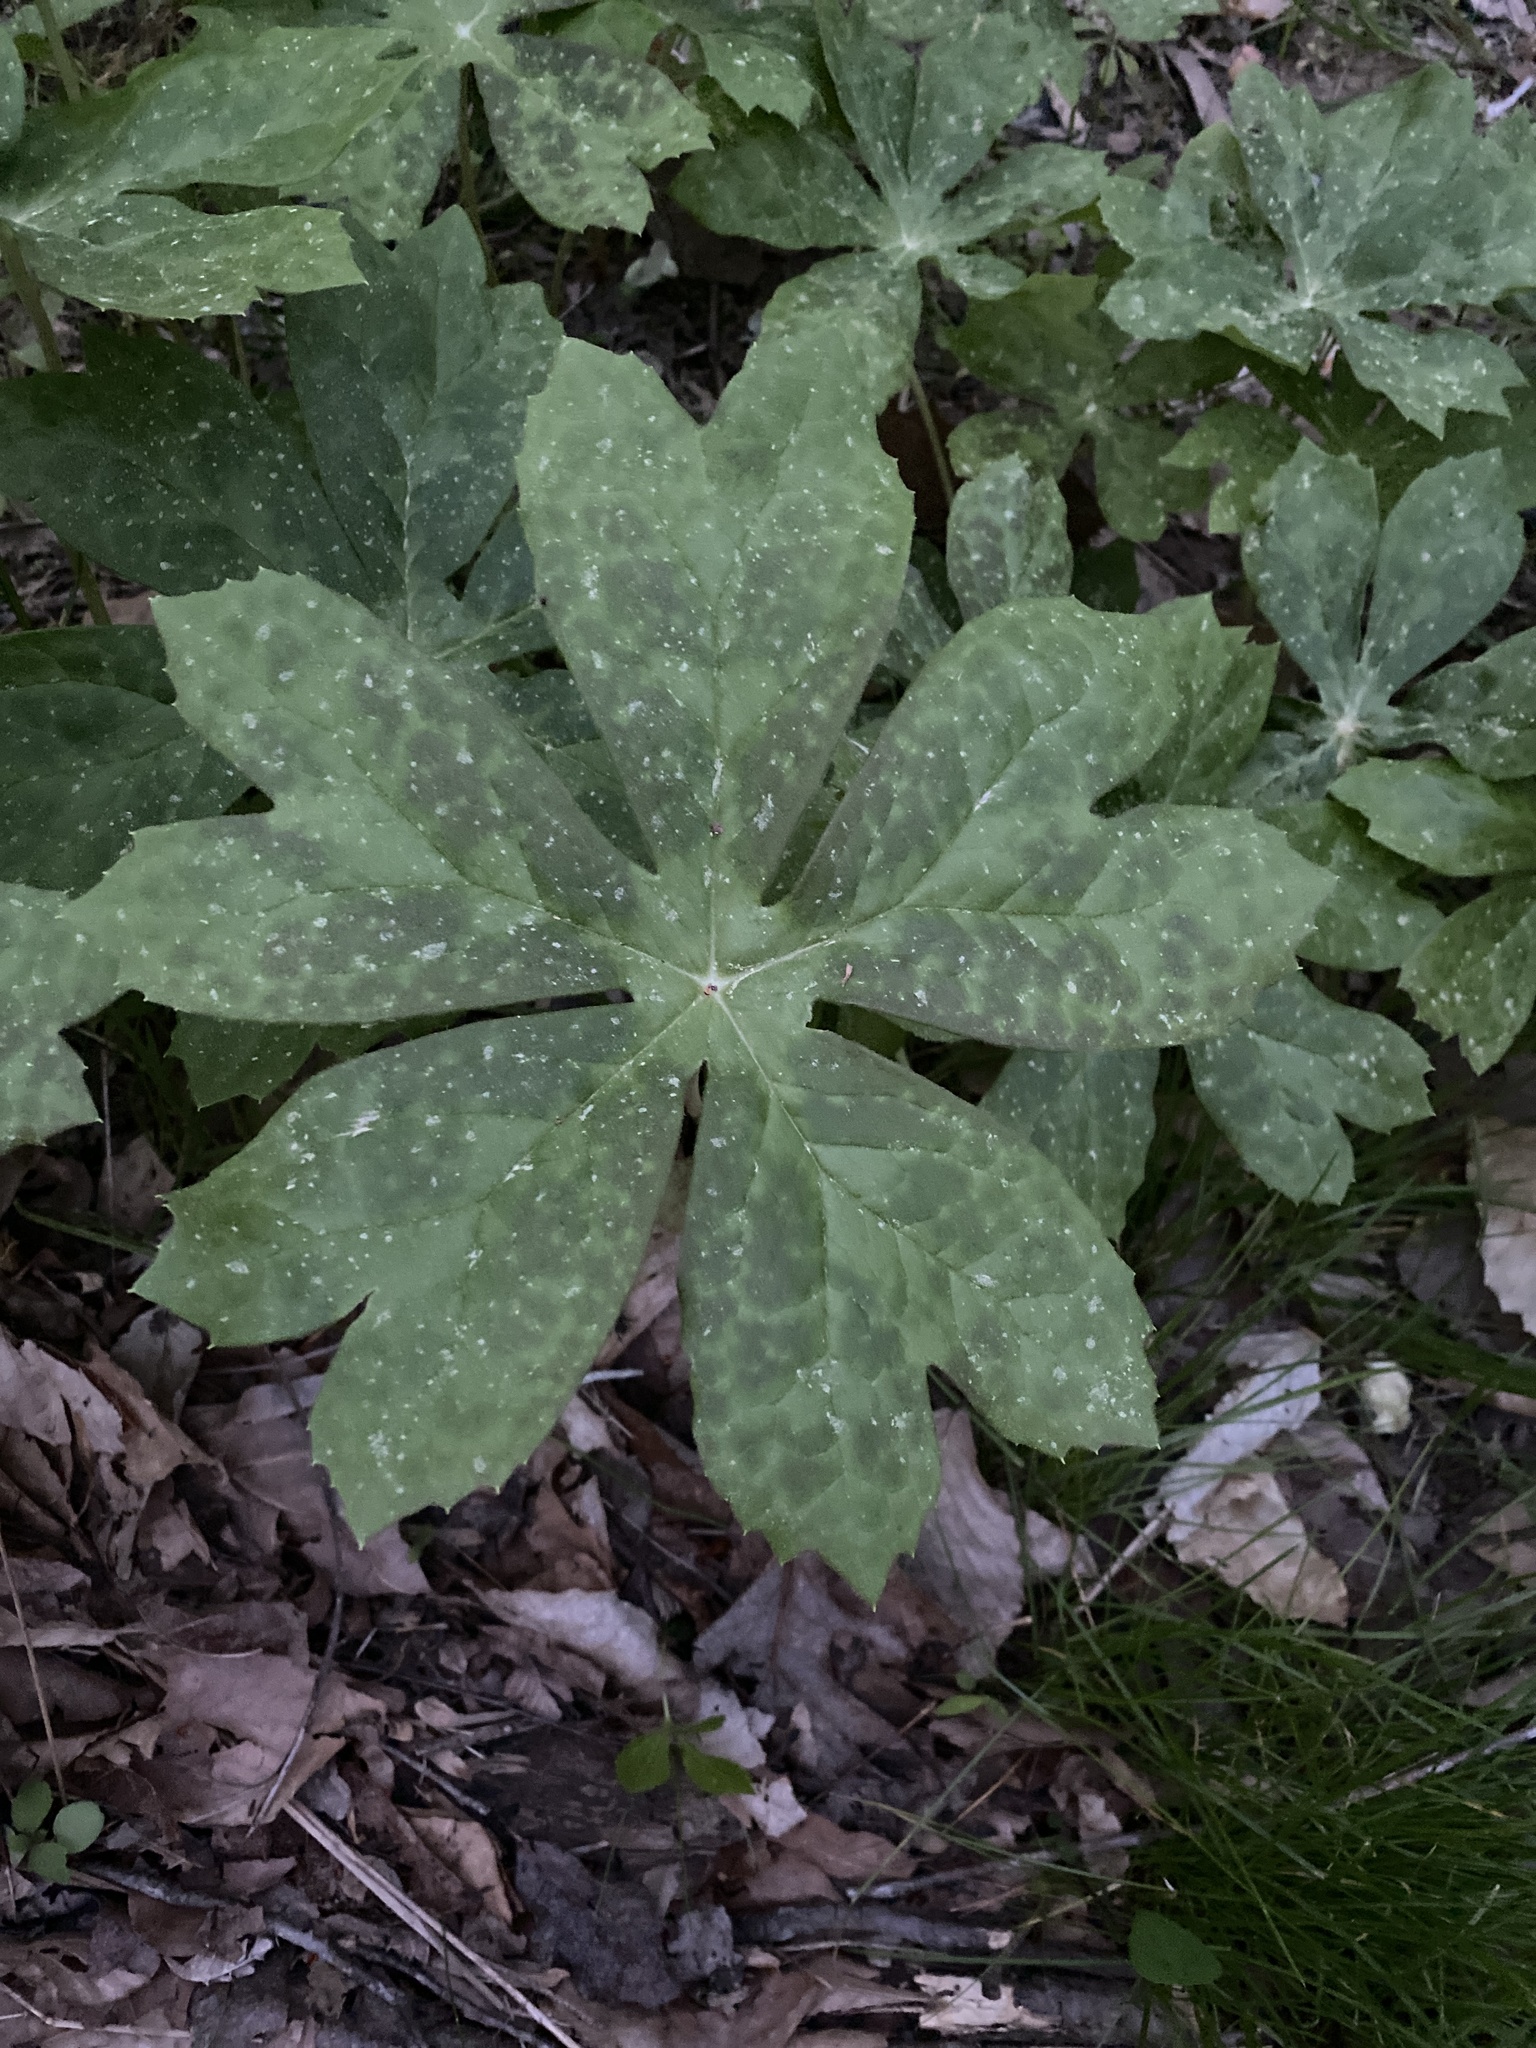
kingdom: Plantae
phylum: Tracheophyta
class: Magnoliopsida
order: Ranunculales
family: Berberidaceae
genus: Podophyllum
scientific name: Podophyllum peltatum
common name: Wild mandrake
